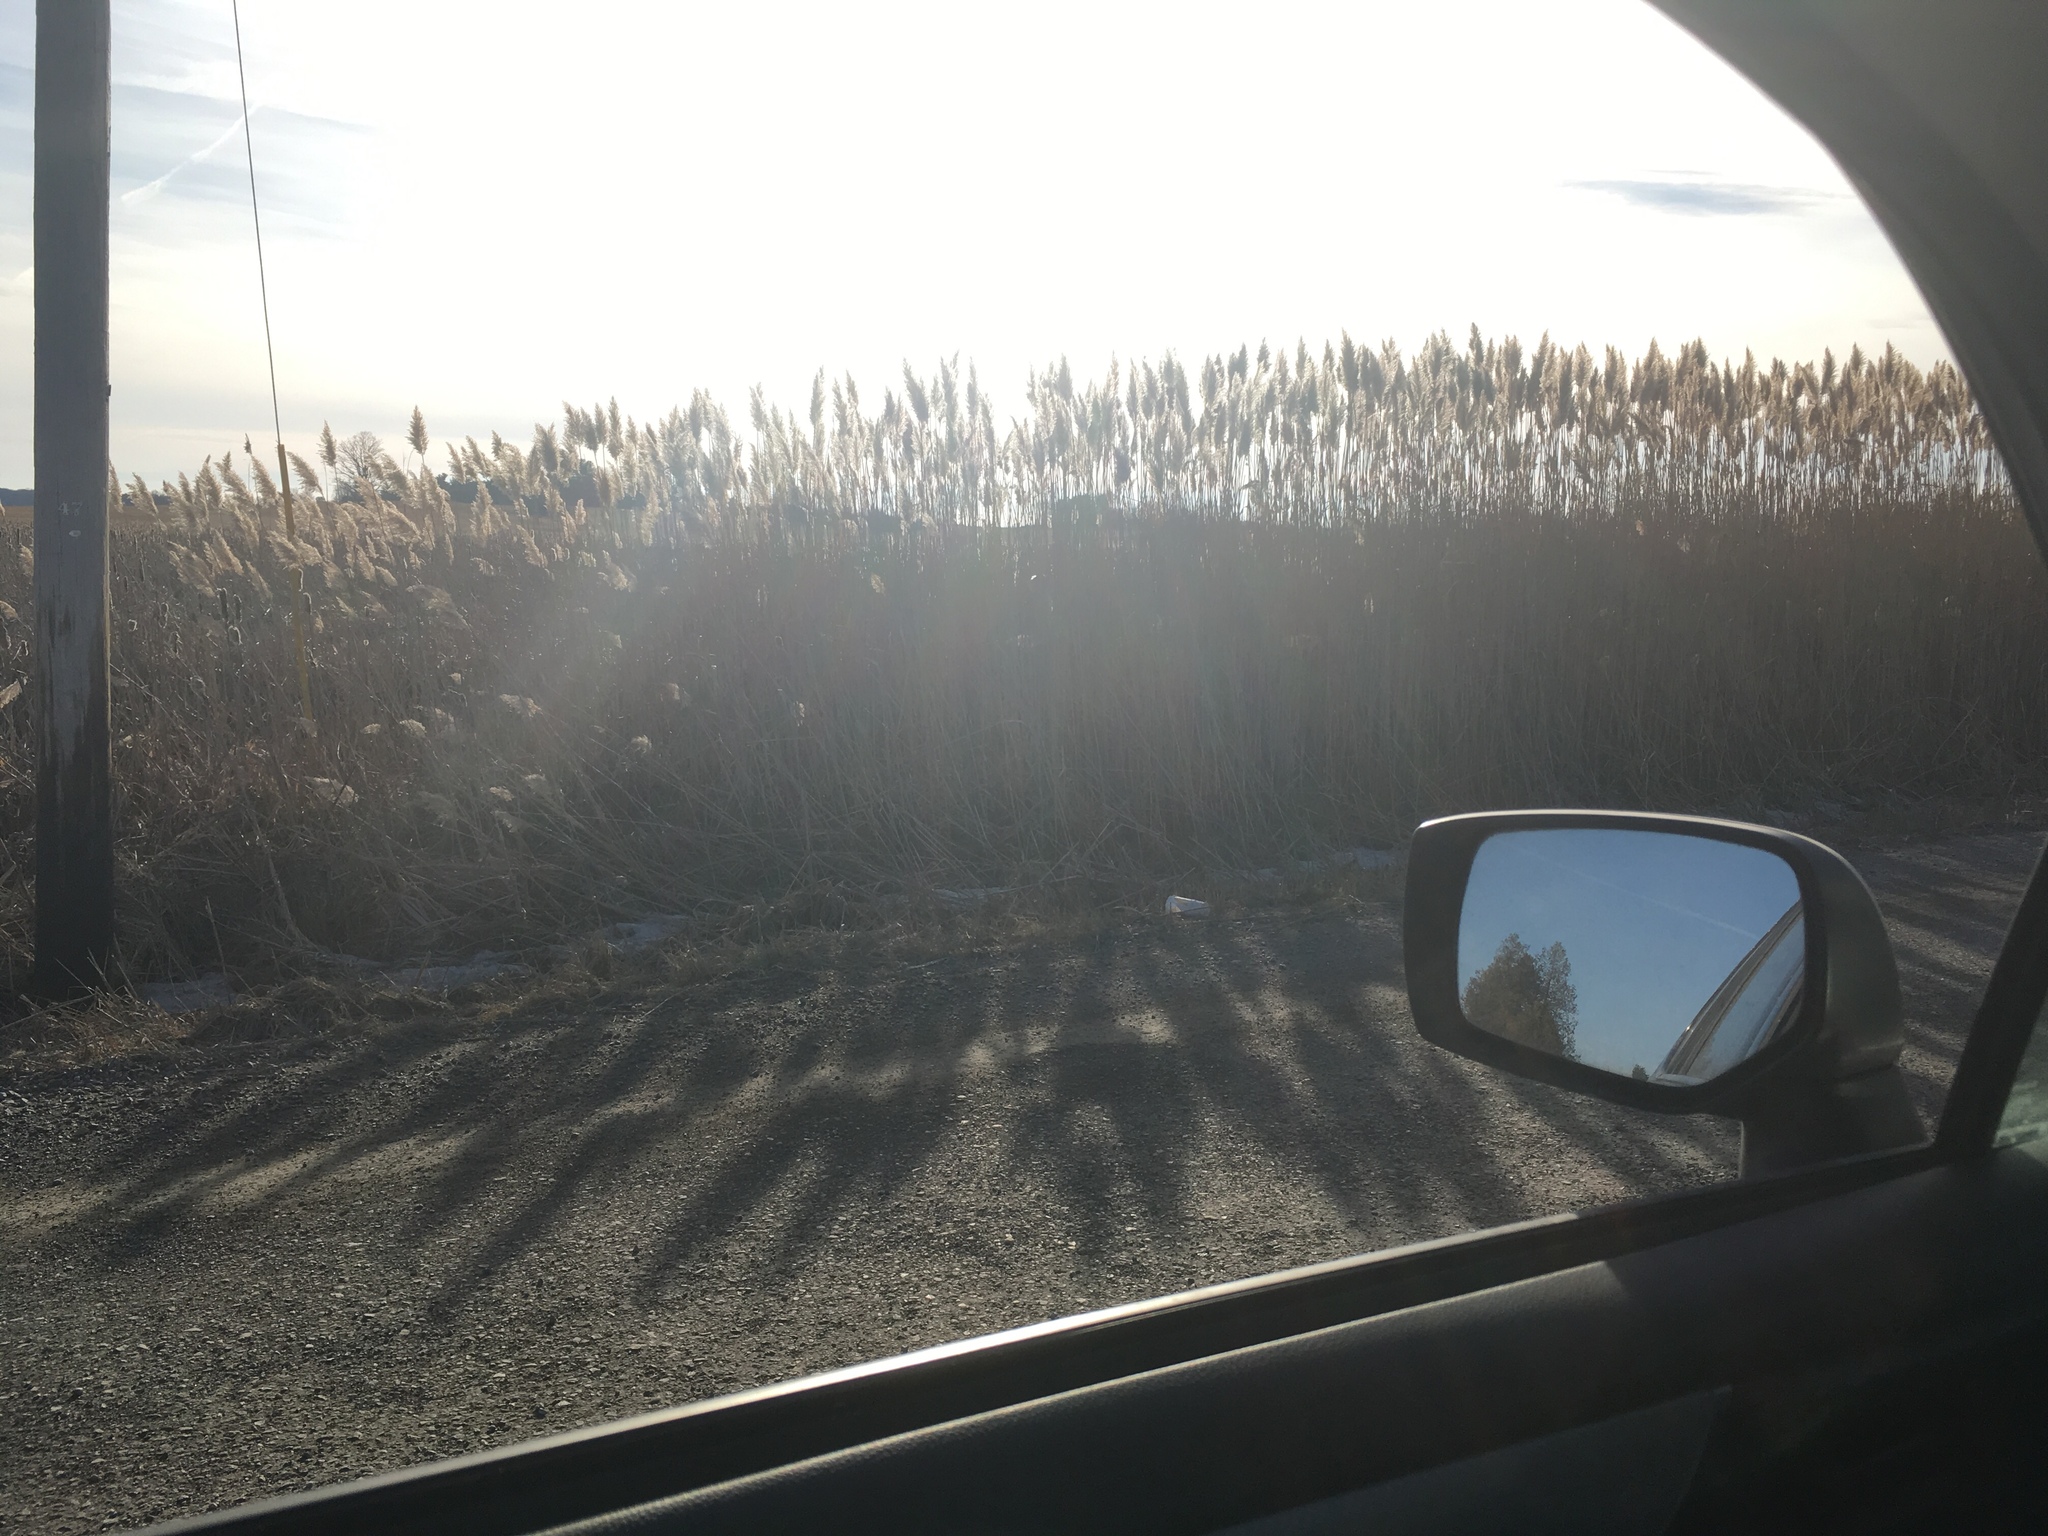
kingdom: Plantae
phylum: Tracheophyta
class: Liliopsida
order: Poales
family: Poaceae
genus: Phragmites
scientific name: Phragmites australis
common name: Common reed
